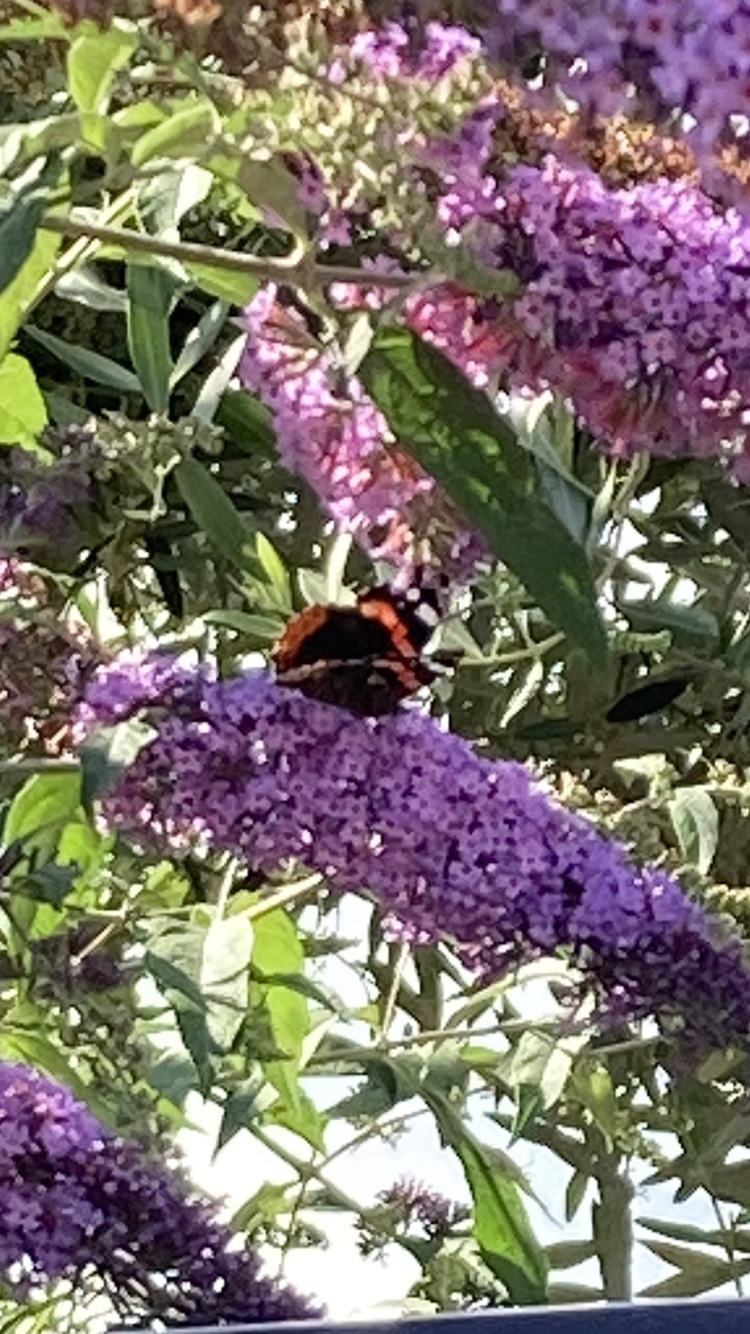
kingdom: Animalia
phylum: Arthropoda
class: Insecta
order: Lepidoptera
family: Nymphalidae
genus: Vanessa
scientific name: Vanessa atalanta
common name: Red admiral
